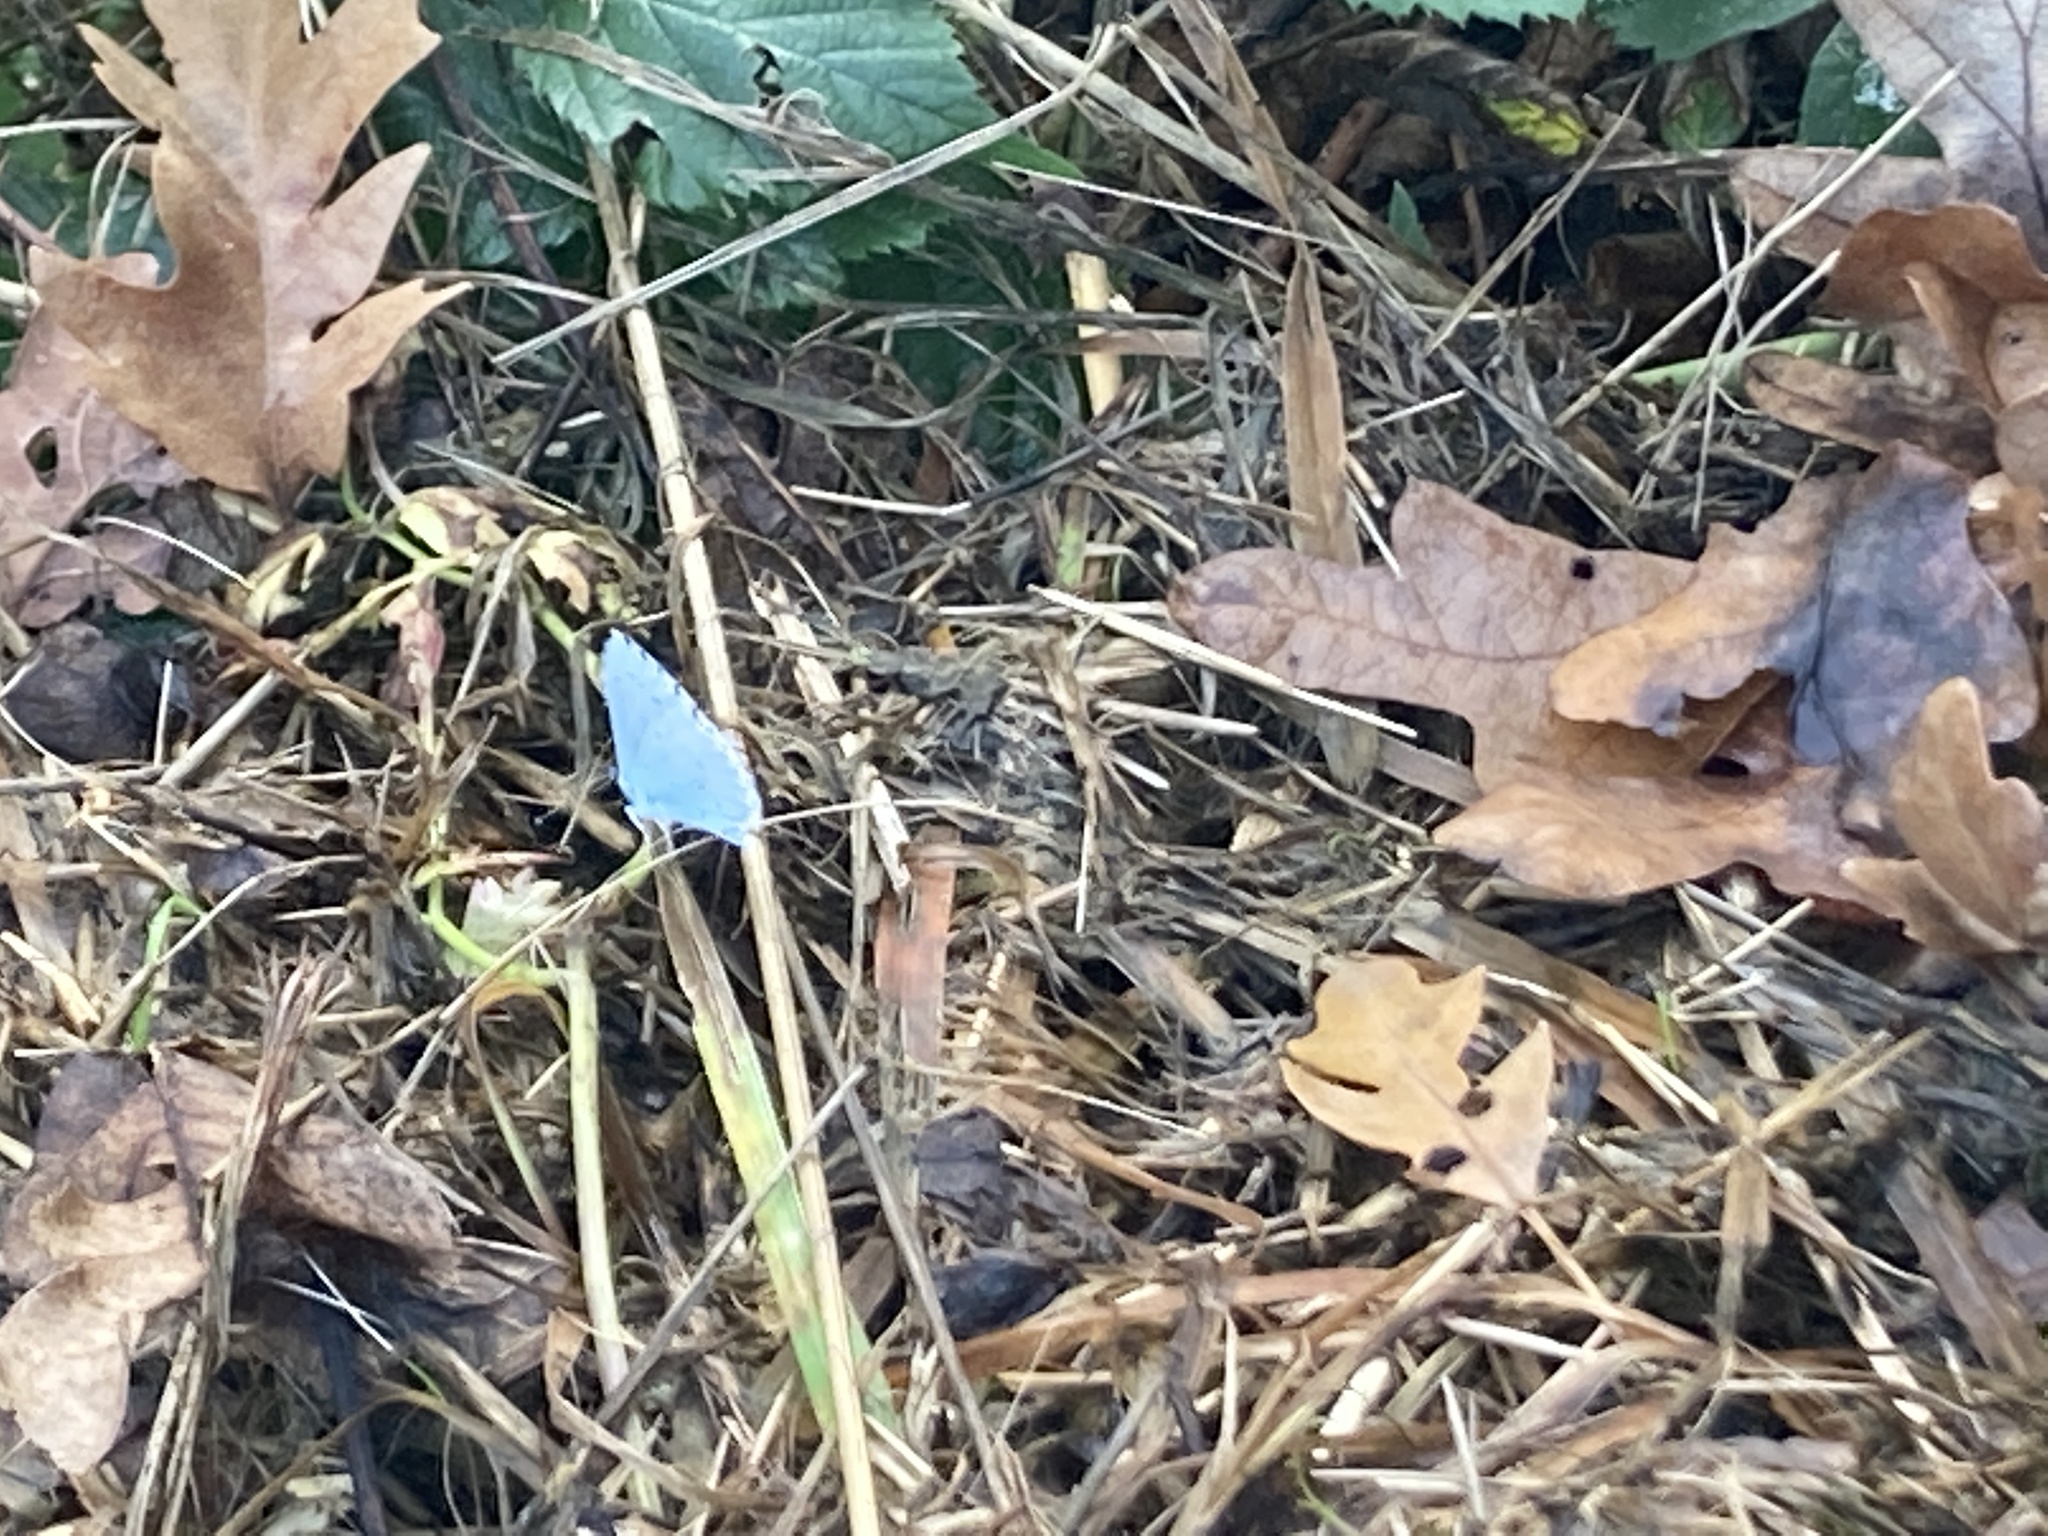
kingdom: Animalia
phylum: Arthropoda
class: Insecta
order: Lepidoptera
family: Lycaenidae
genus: Celastrina
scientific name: Celastrina argiolus
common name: Holly blue
